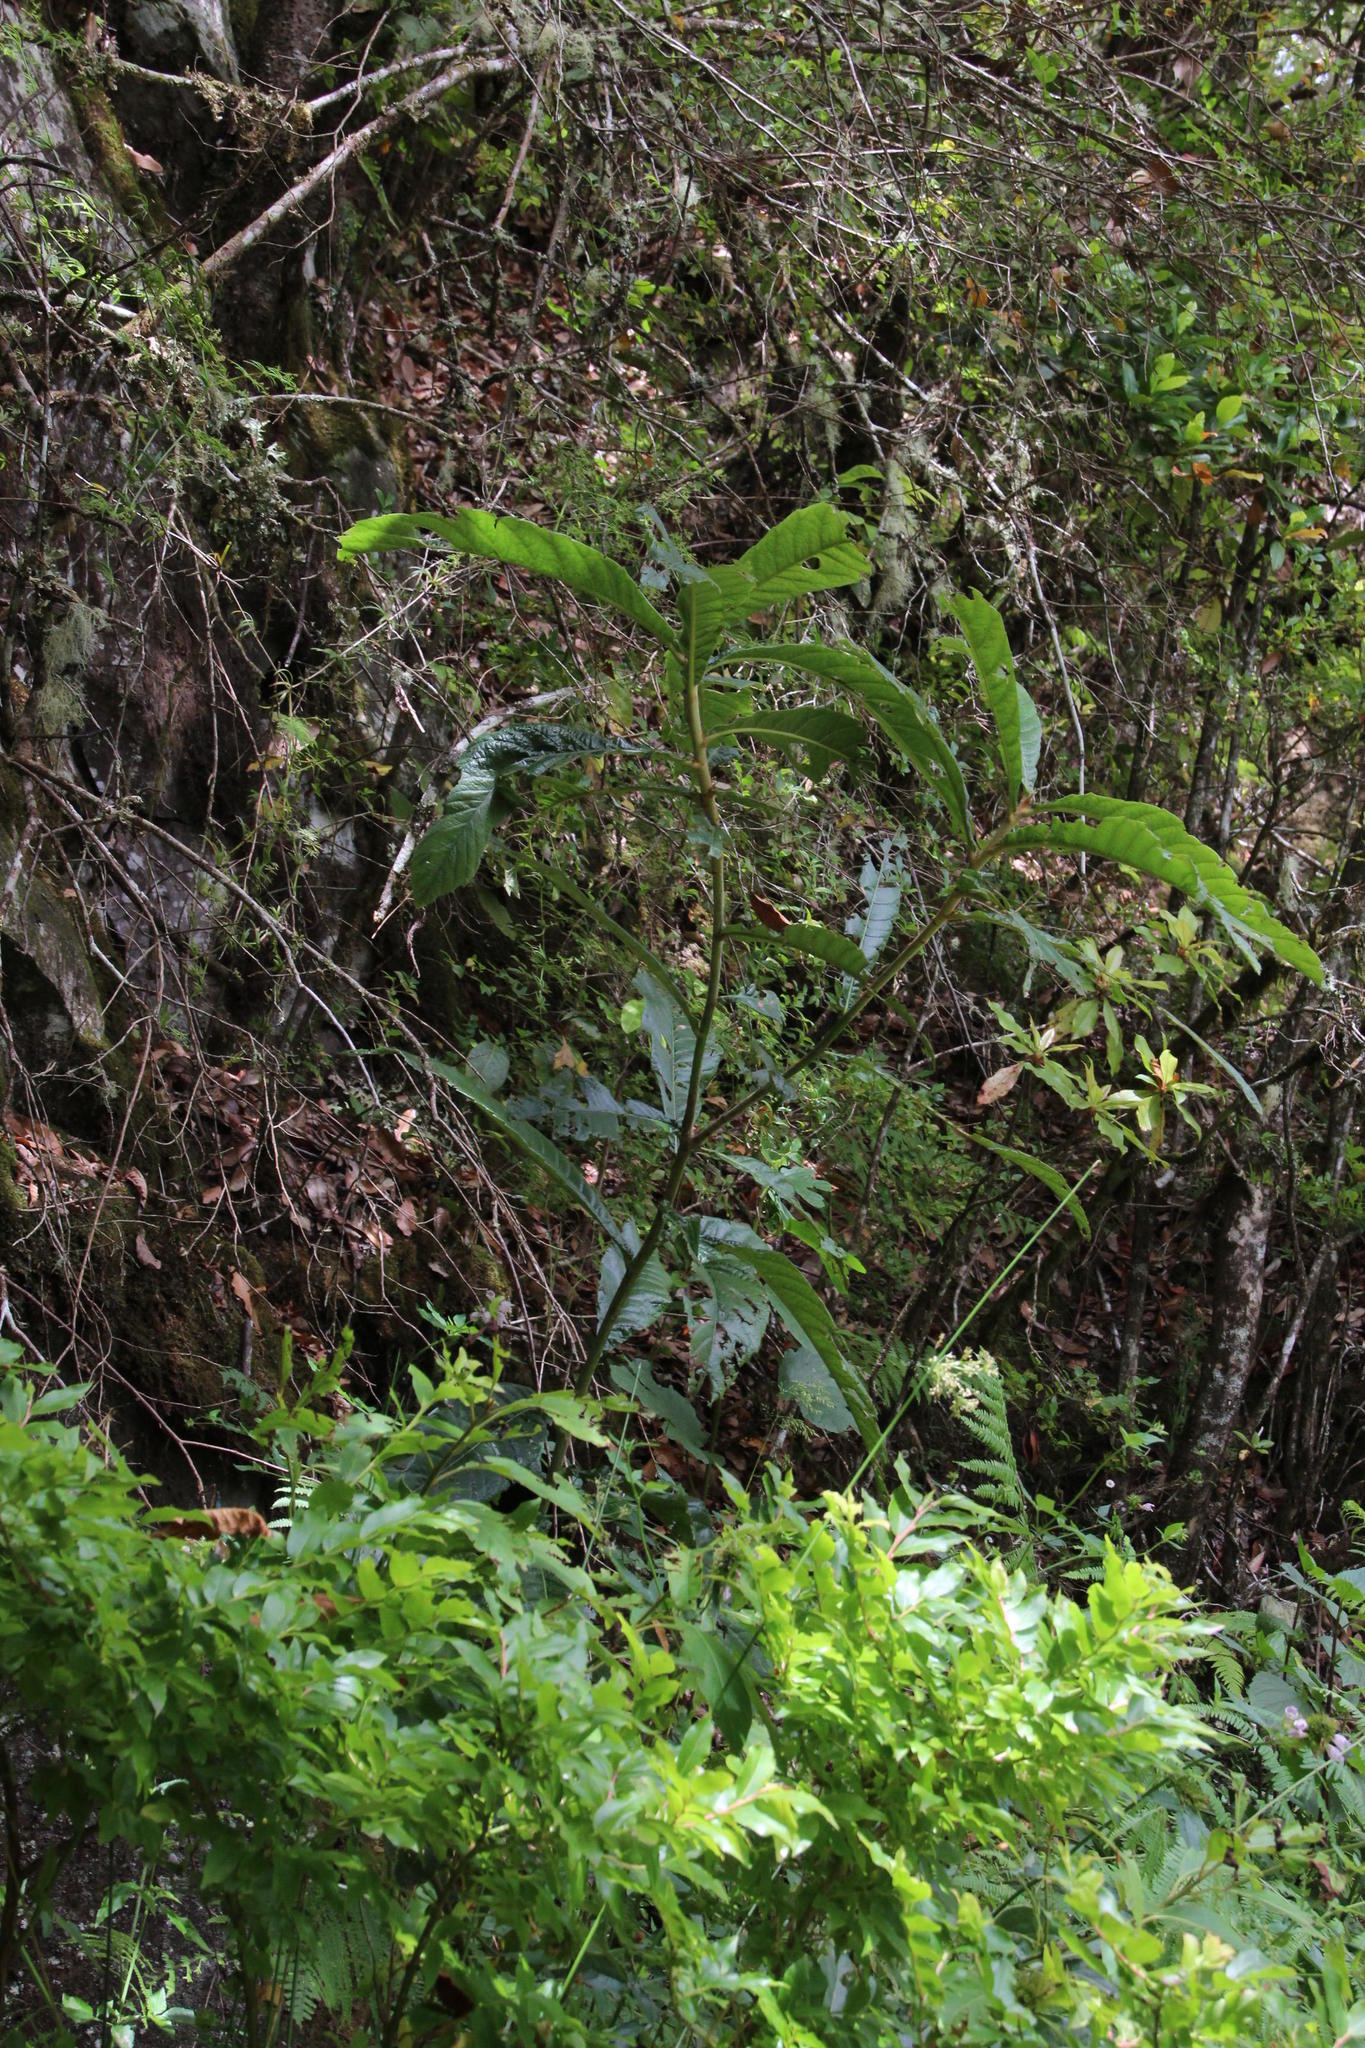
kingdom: Plantae
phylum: Tracheophyta
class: Magnoliopsida
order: Rosales
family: Rosaceae
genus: Rhaphiolepis
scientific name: Rhaphiolepis bibas
